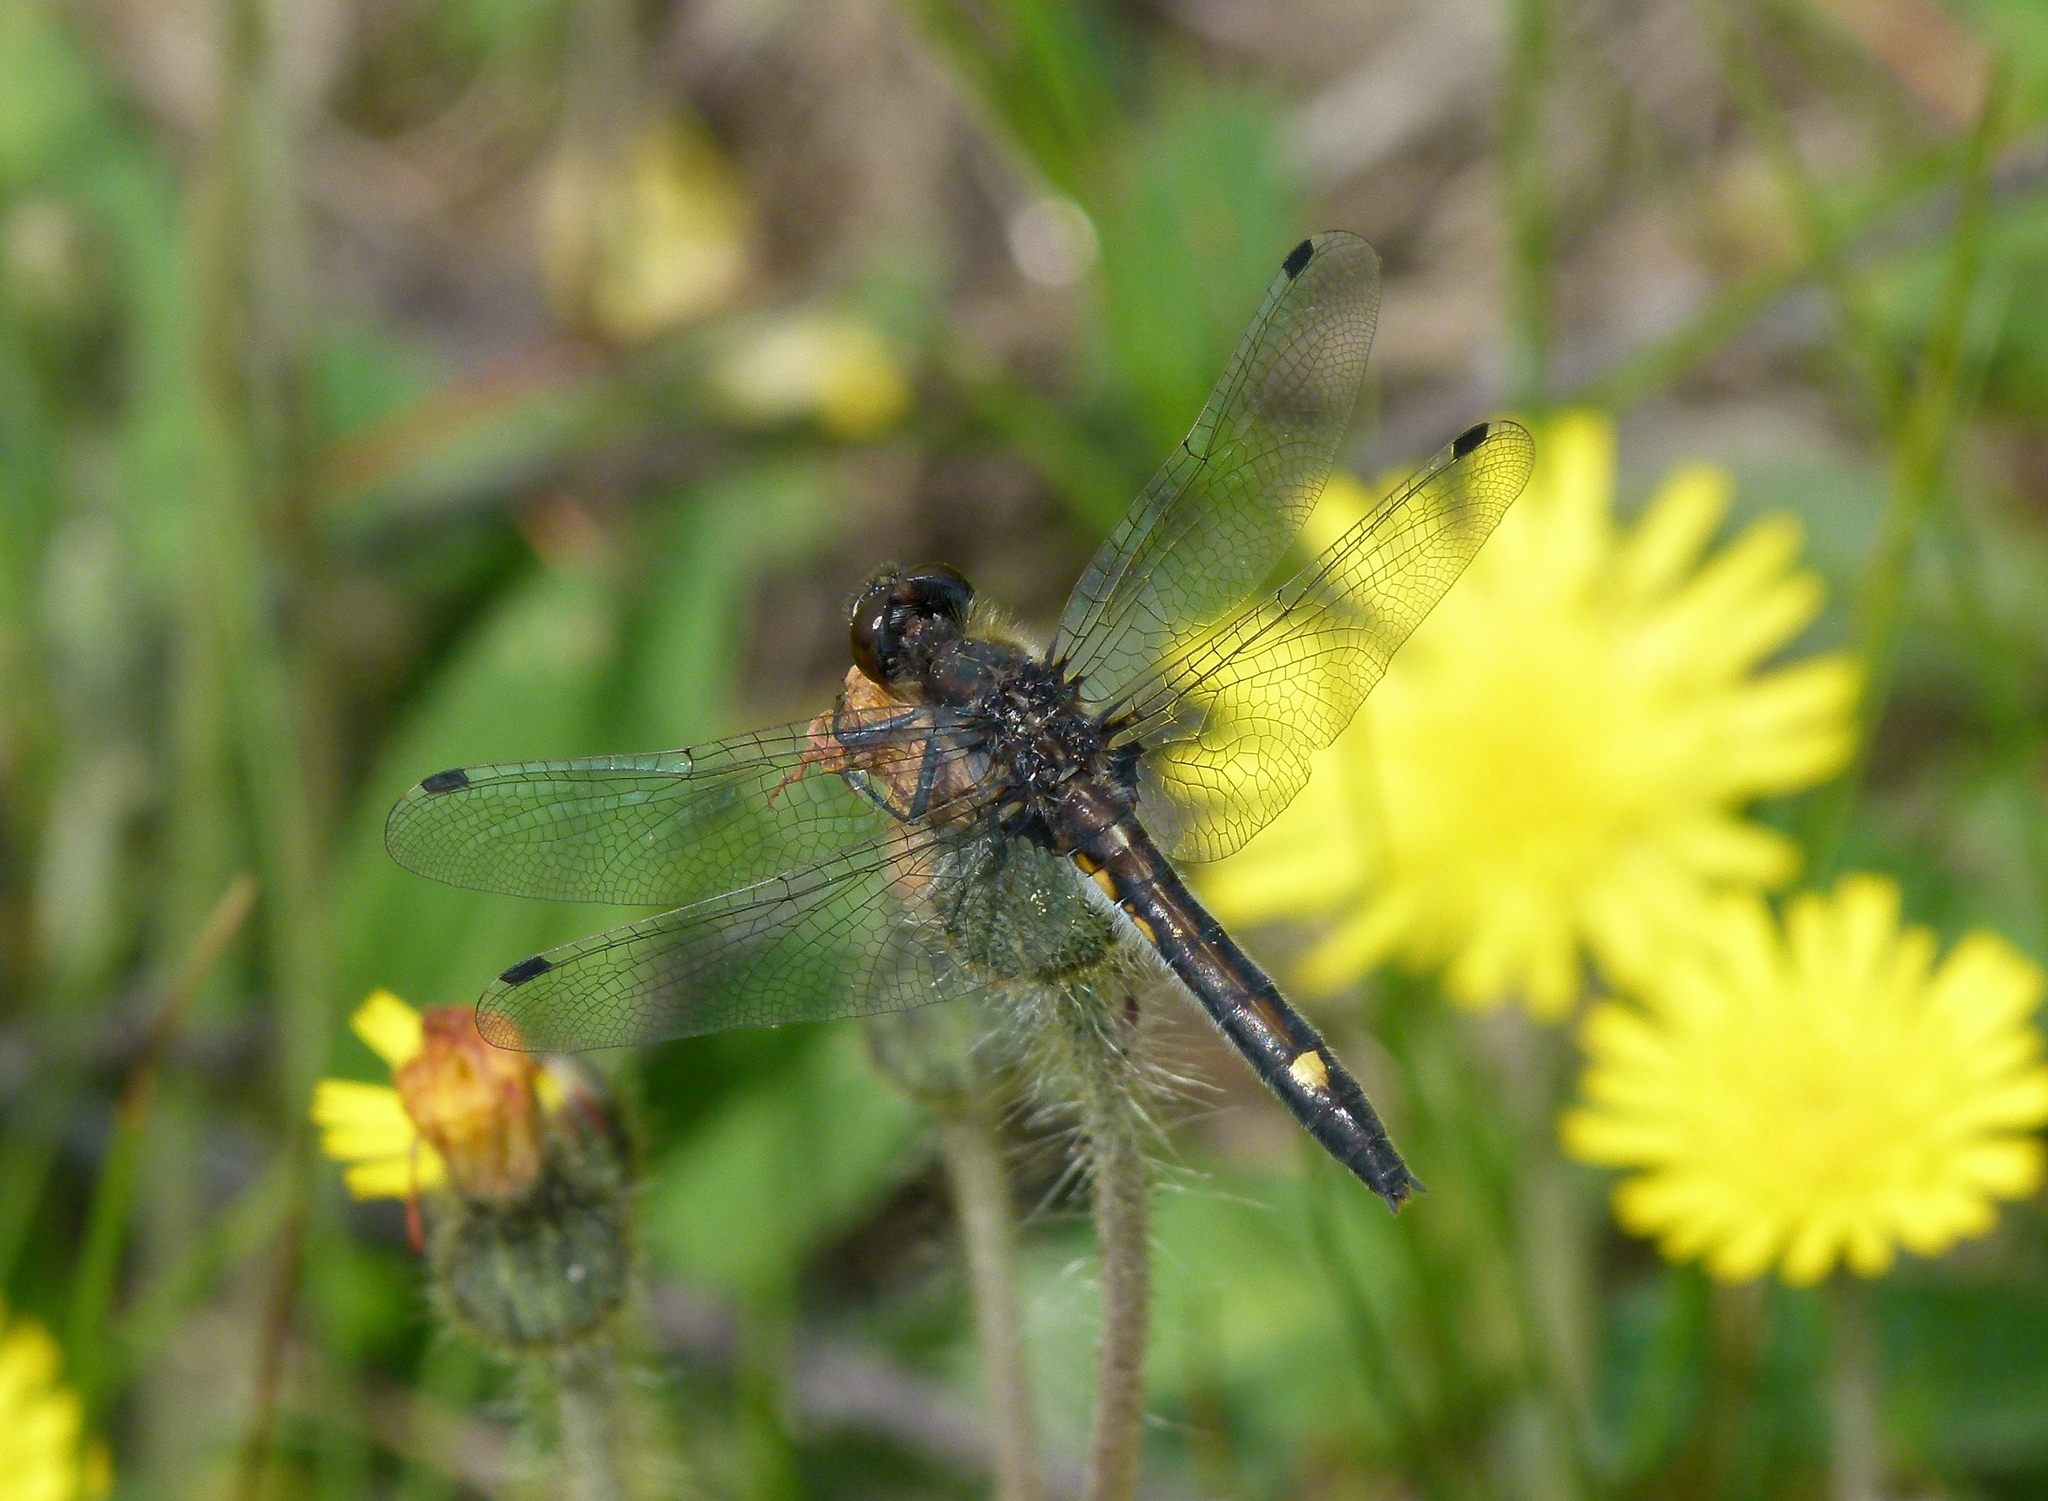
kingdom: Animalia
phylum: Arthropoda
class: Insecta
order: Odonata
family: Libellulidae
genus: Leucorrhinia
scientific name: Leucorrhinia intacta
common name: Dot-tailed whiteface
